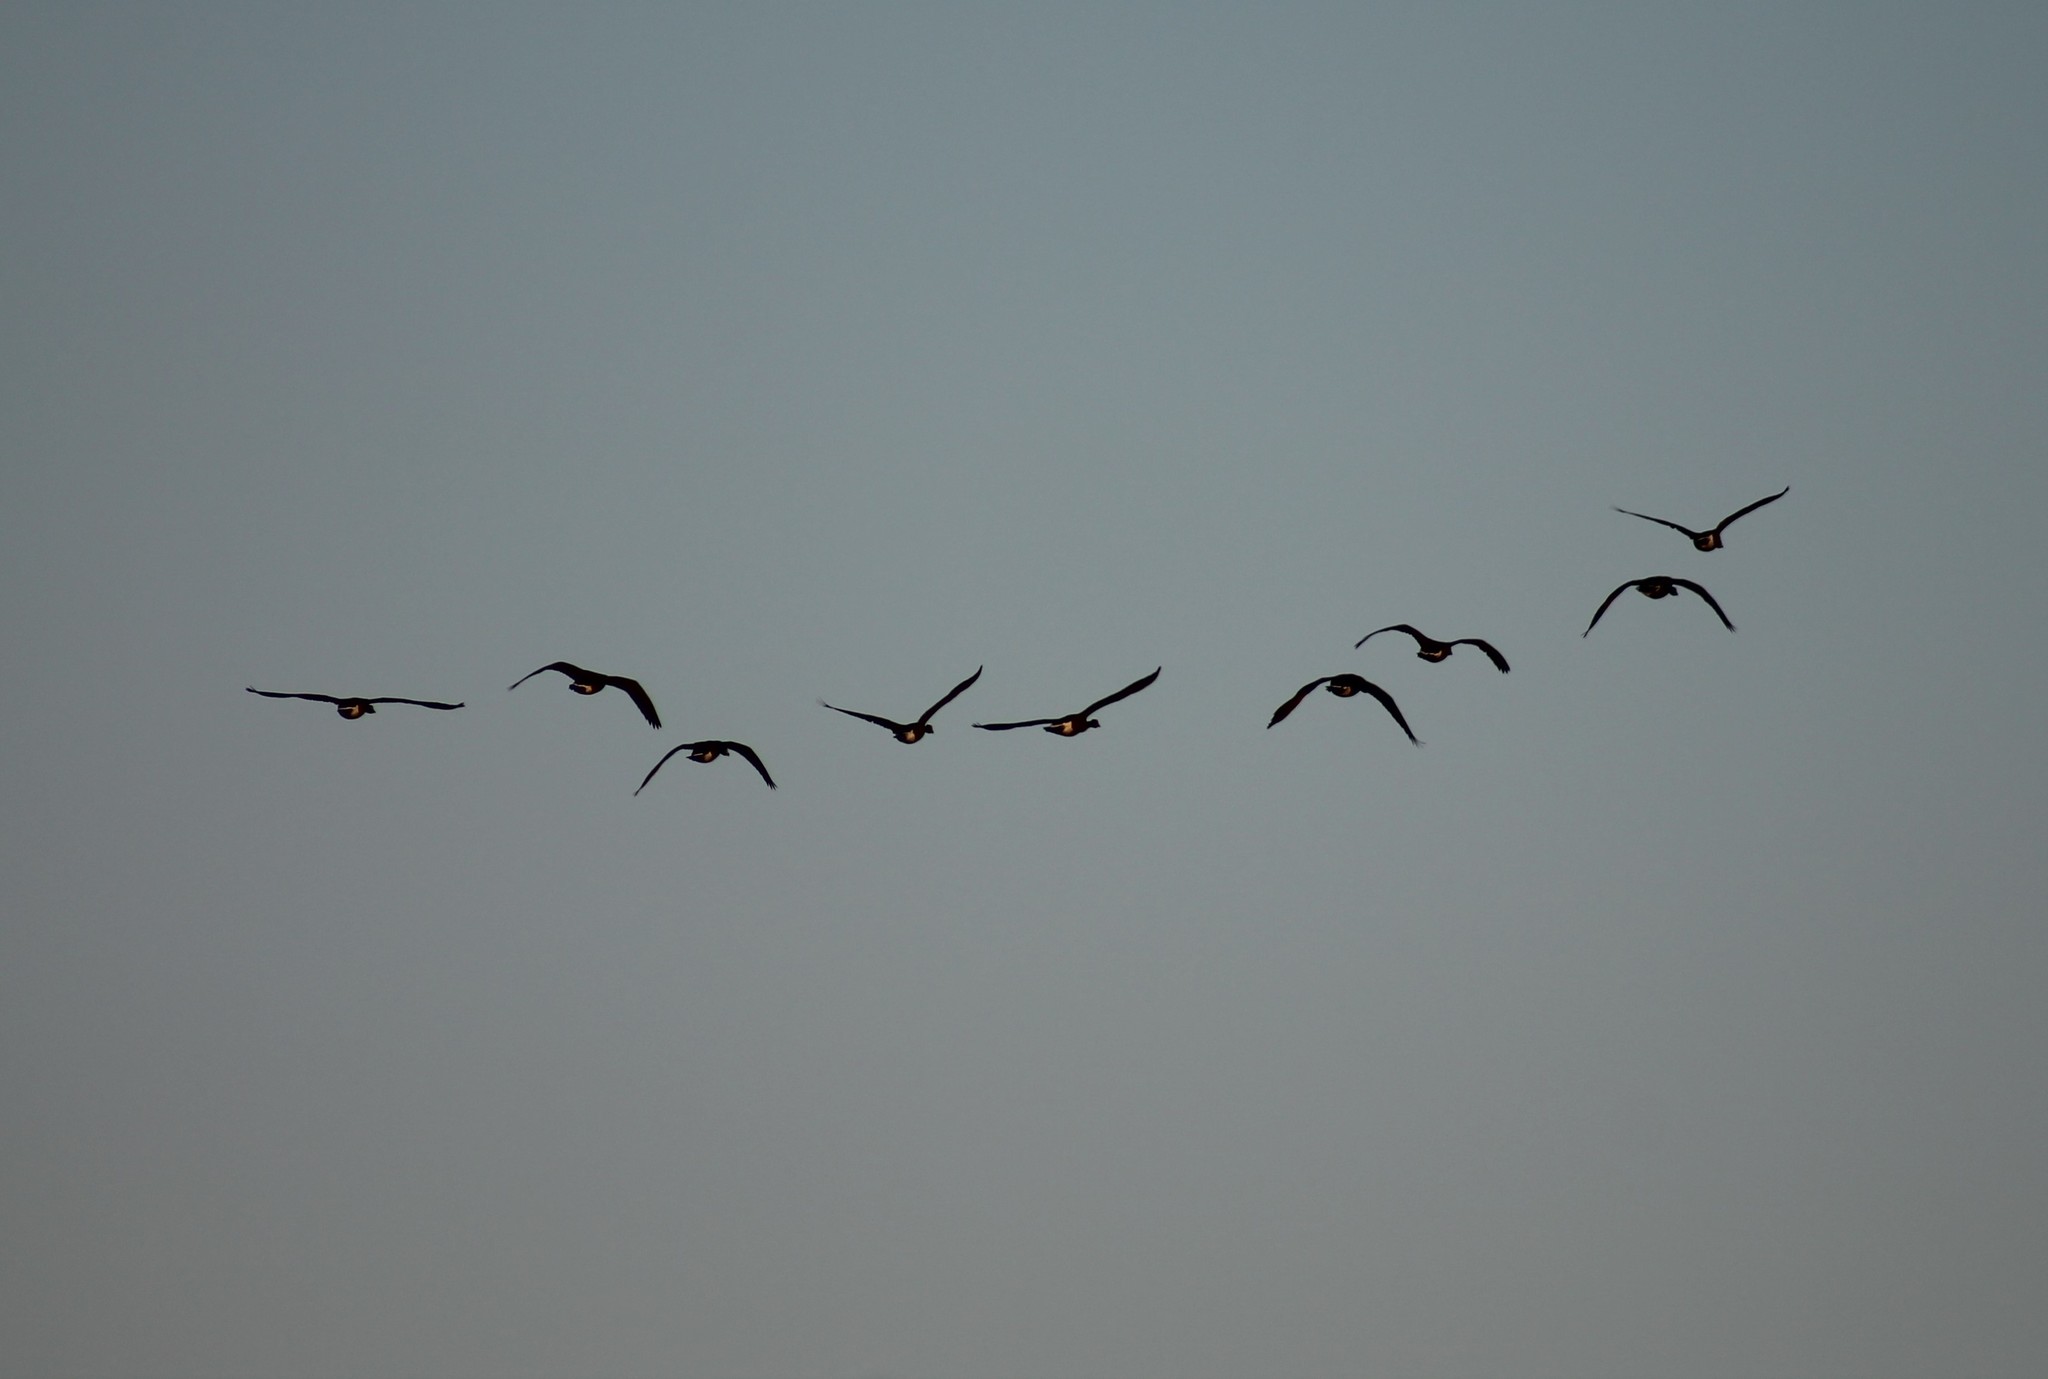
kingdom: Animalia
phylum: Chordata
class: Aves
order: Anseriformes
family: Anatidae
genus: Branta
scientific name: Branta canadensis
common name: Canada goose
